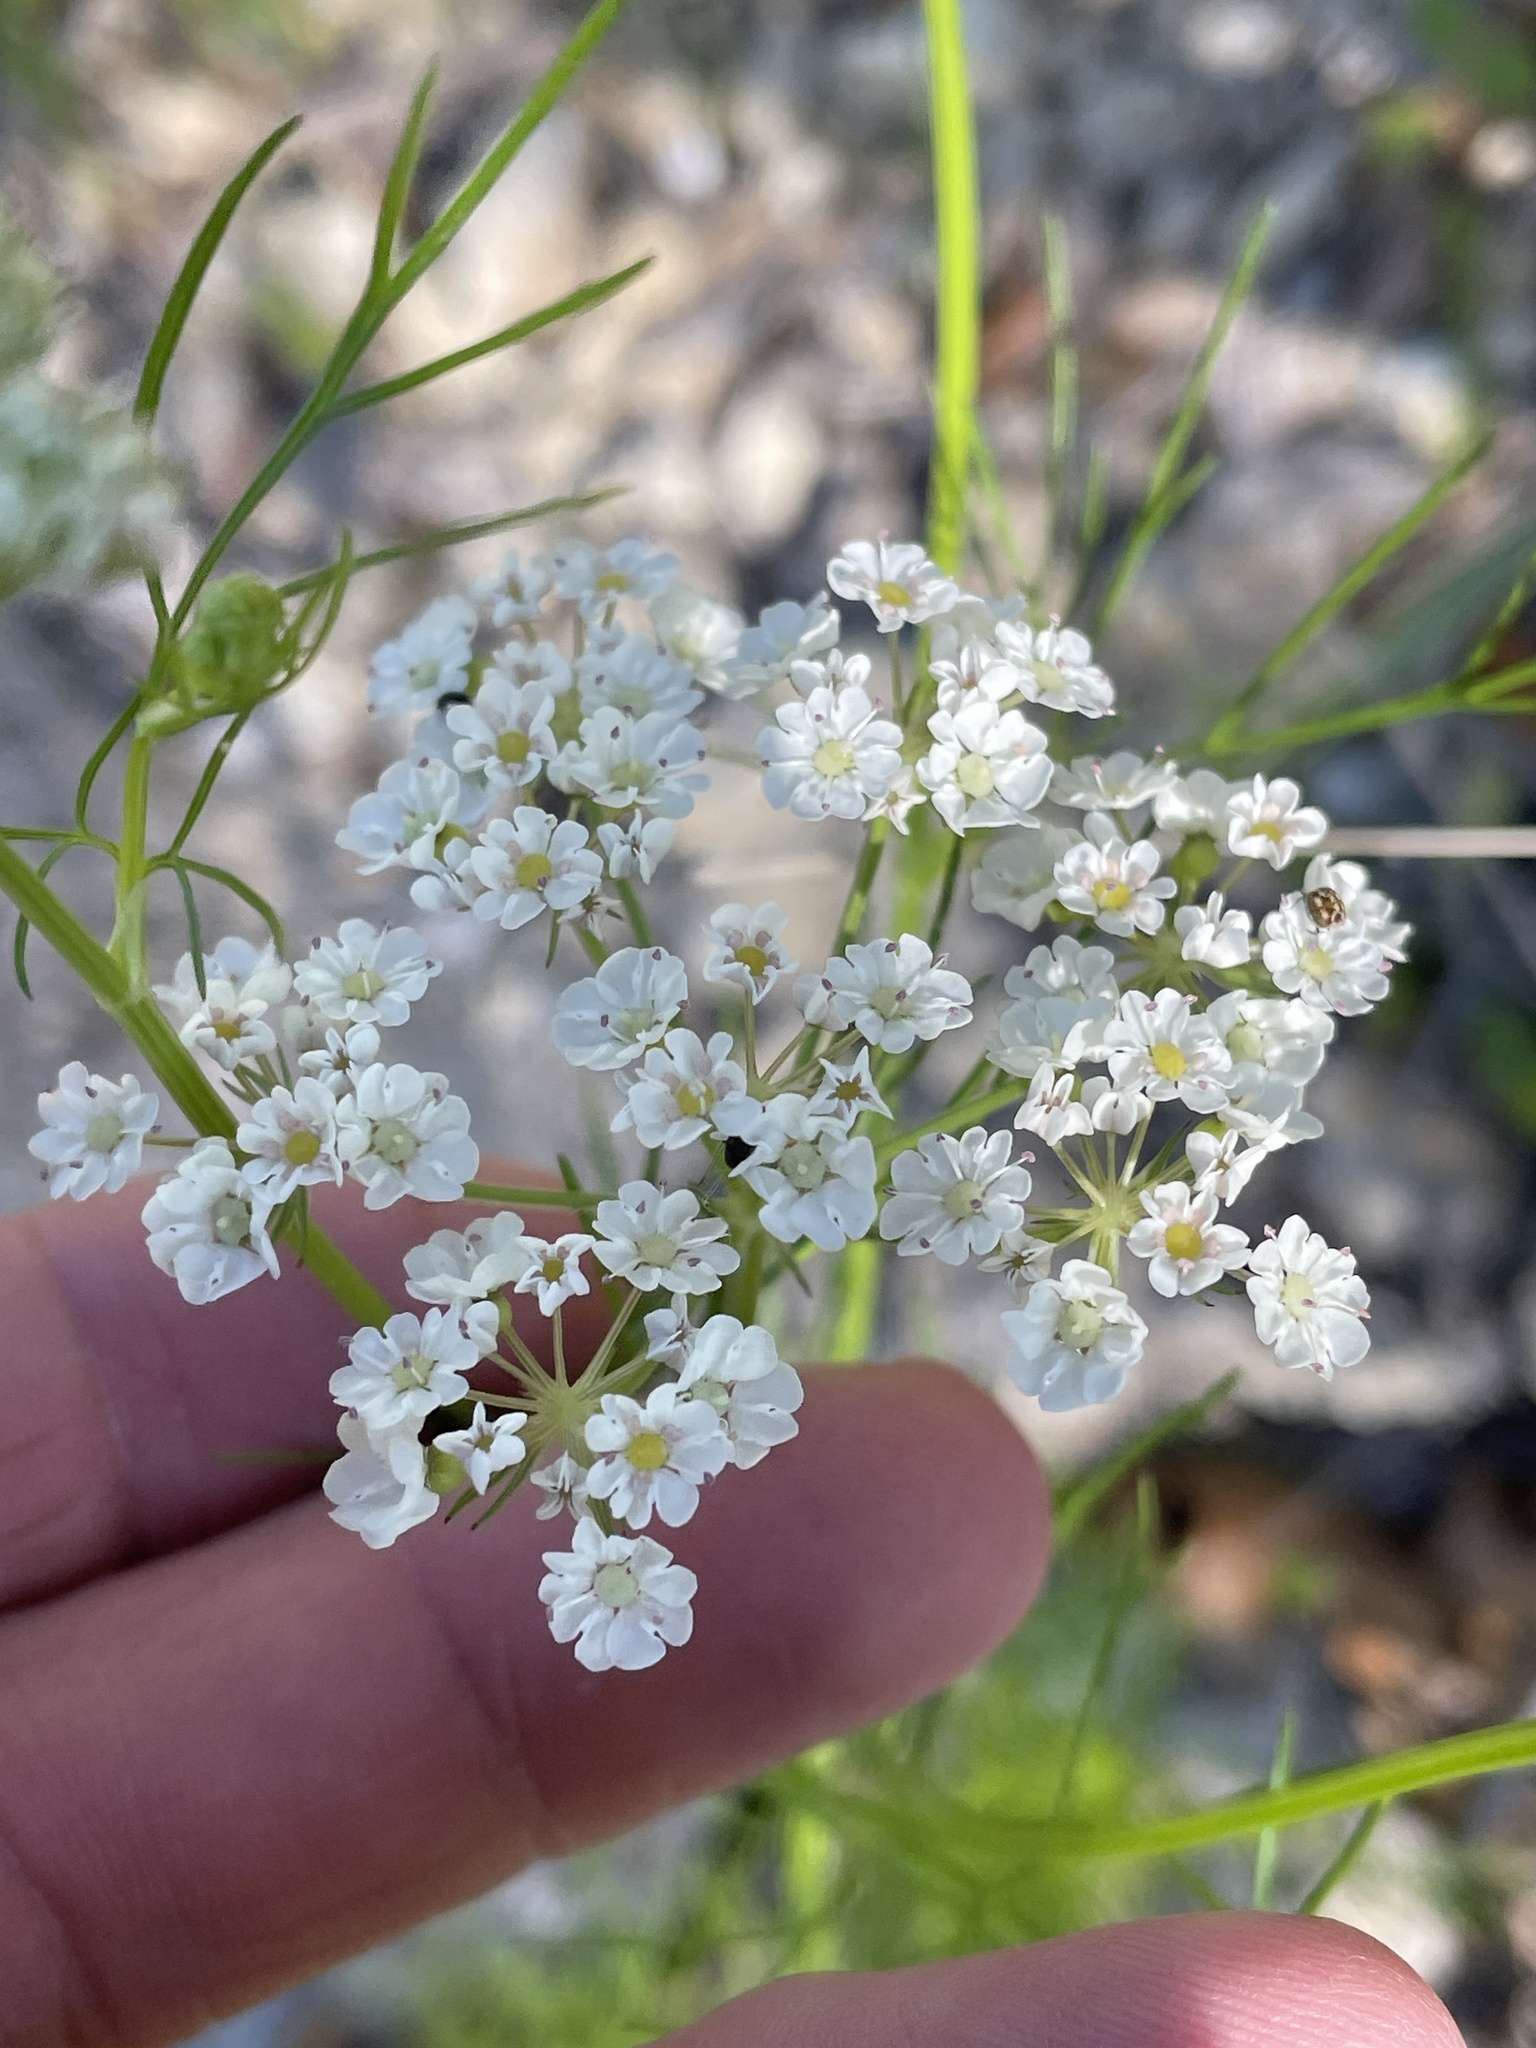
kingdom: Plantae
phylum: Tracheophyta
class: Magnoliopsida
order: Apiales
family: Apiaceae
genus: Atrema
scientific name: Atrema americanum
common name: Prairie-bishop
